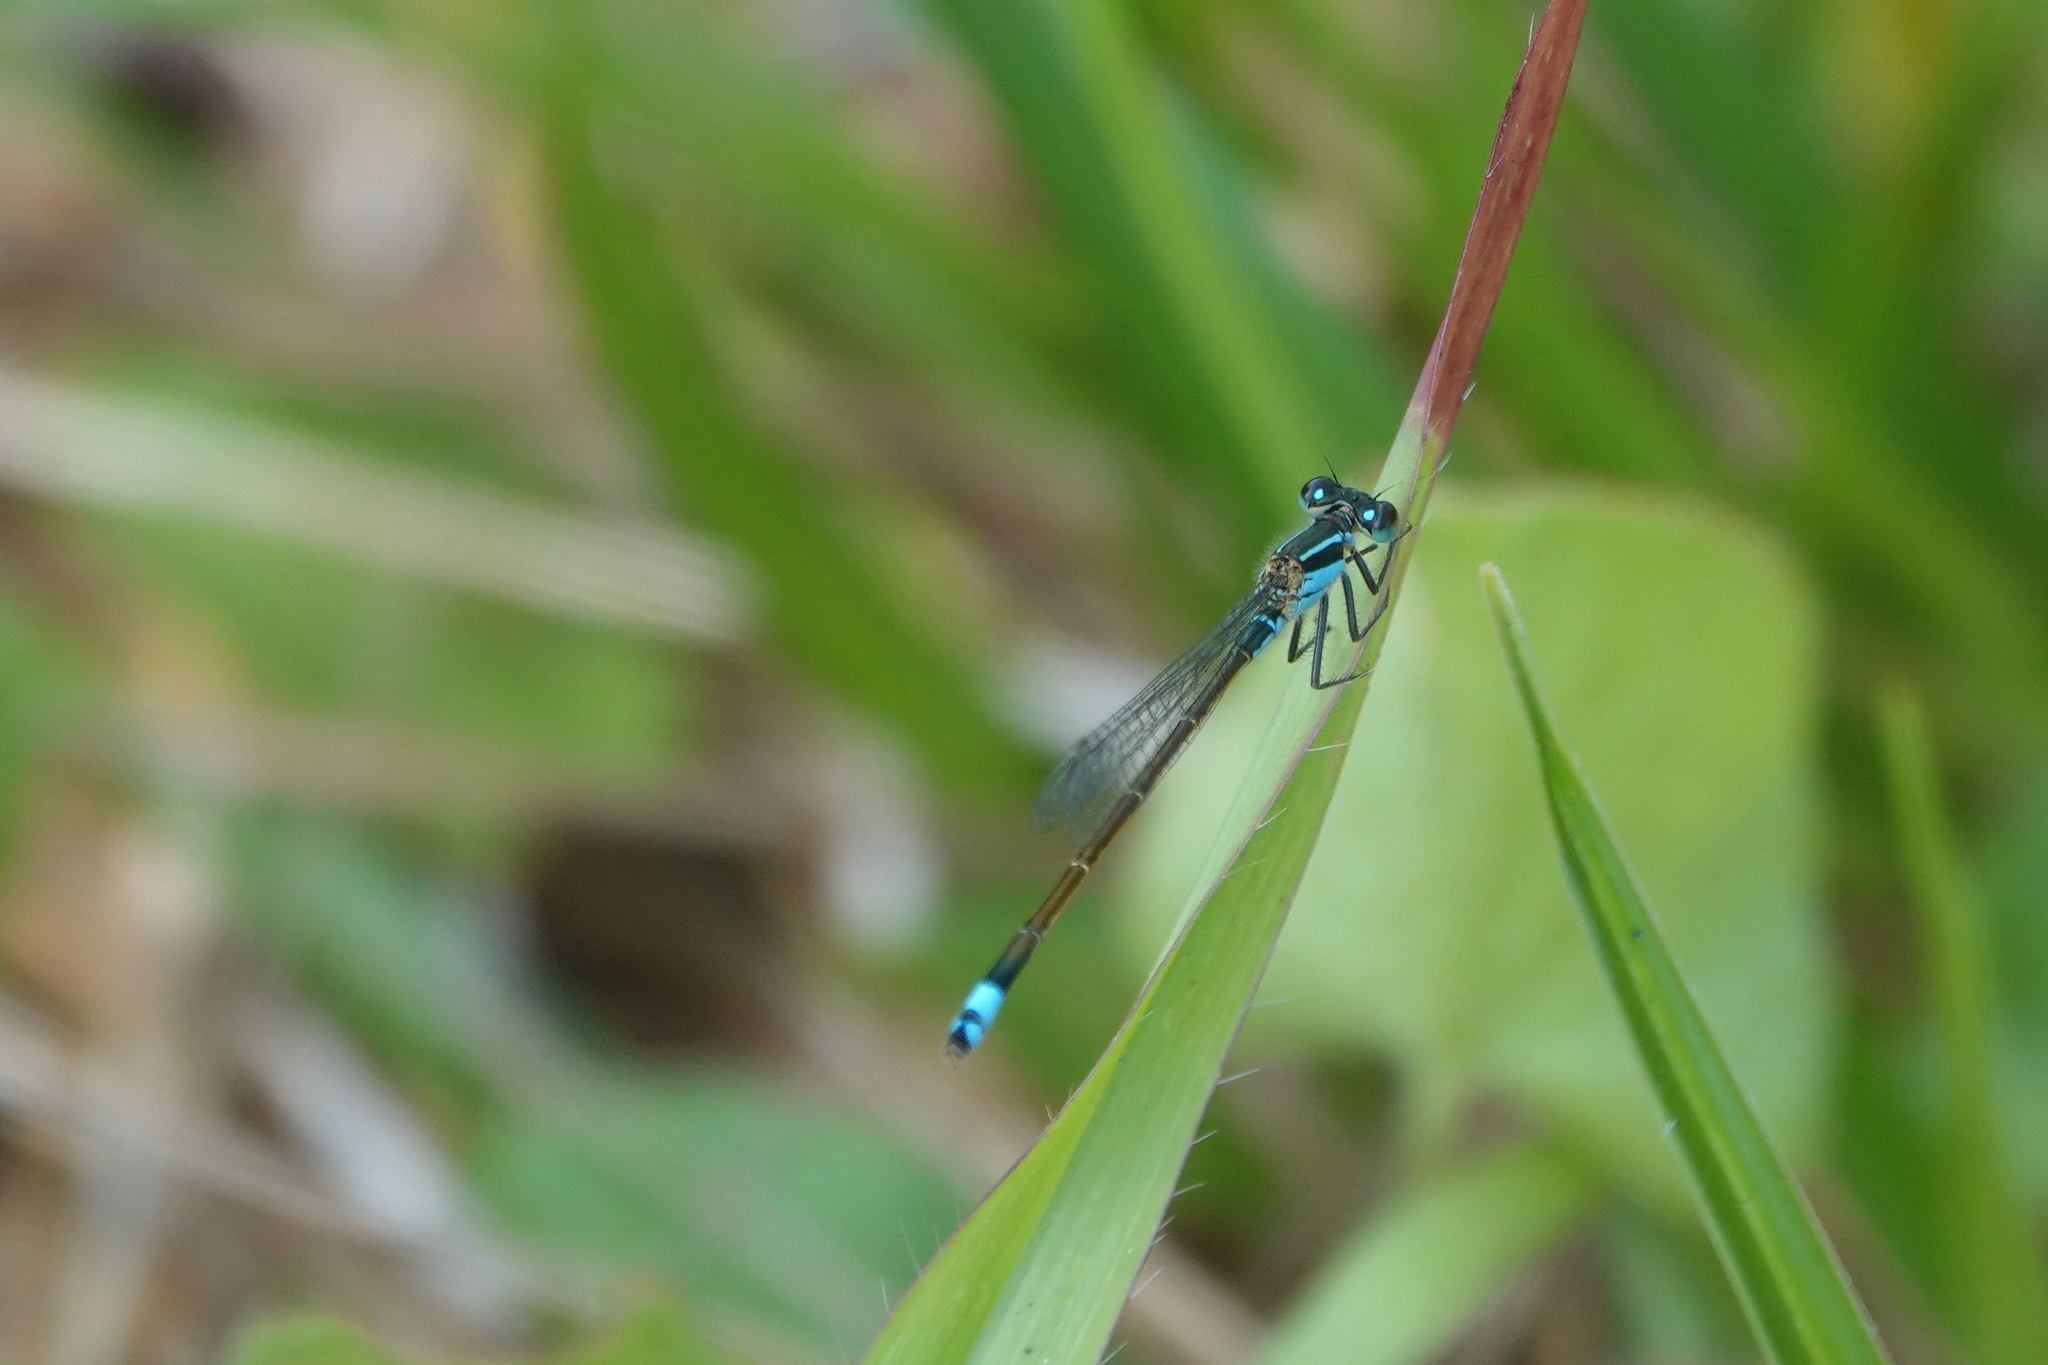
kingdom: Animalia
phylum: Arthropoda
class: Insecta
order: Odonata
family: Coenagrionidae
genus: Ischnura
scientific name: Ischnura ramburii
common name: Rambur's forktail
